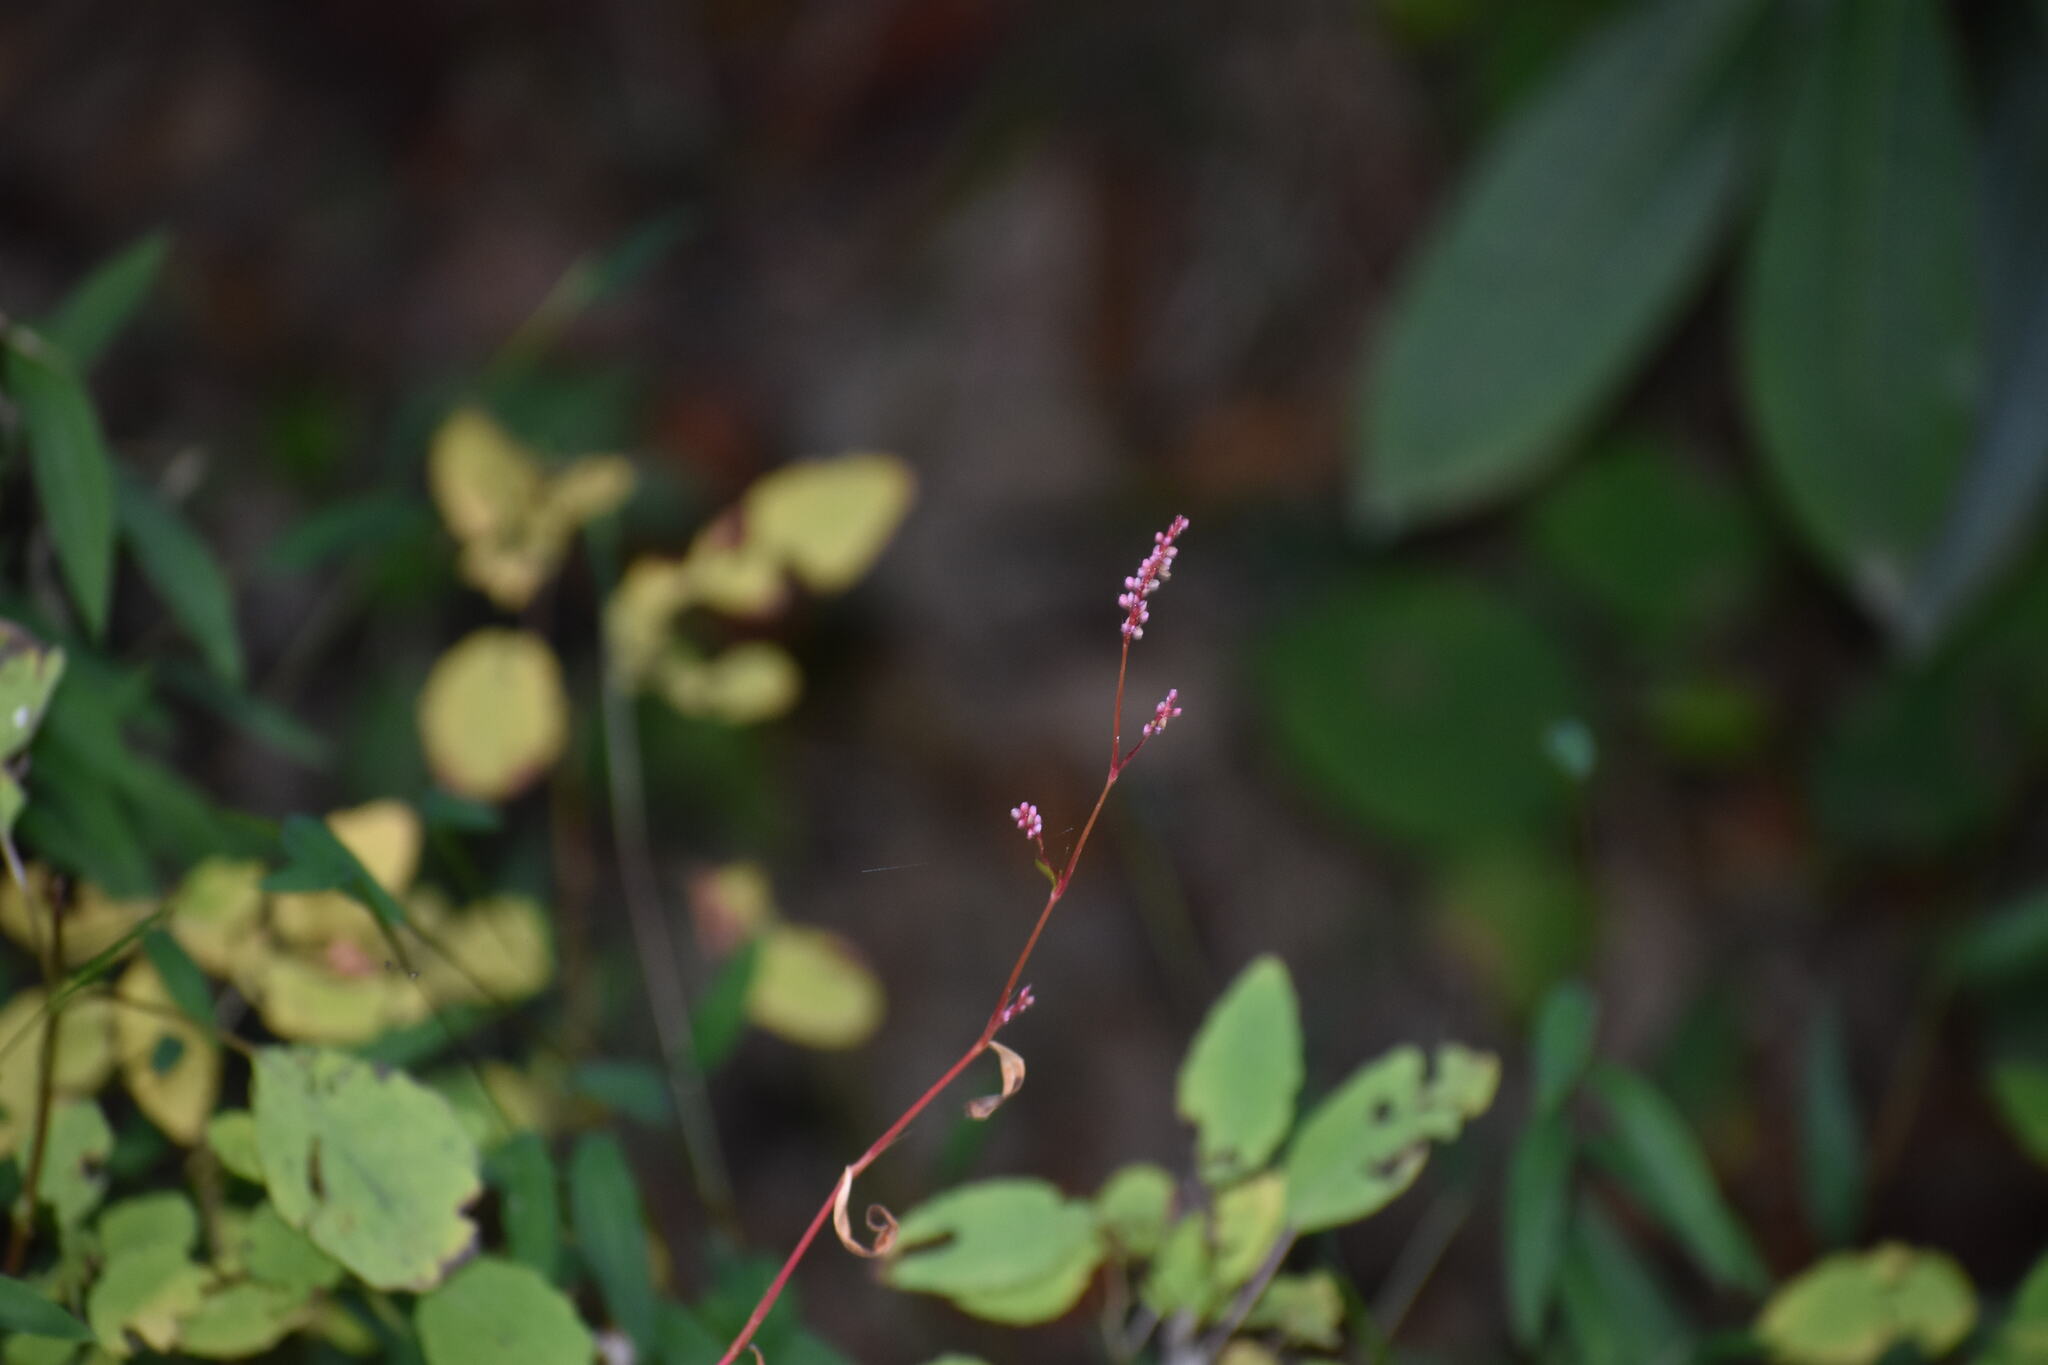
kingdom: Plantae
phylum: Tracheophyta
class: Magnoliopsida
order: Caryophyllales
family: Polygonaceae
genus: Persicaria
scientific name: Persicaria longiseta
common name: Bristly lady's-thumb
